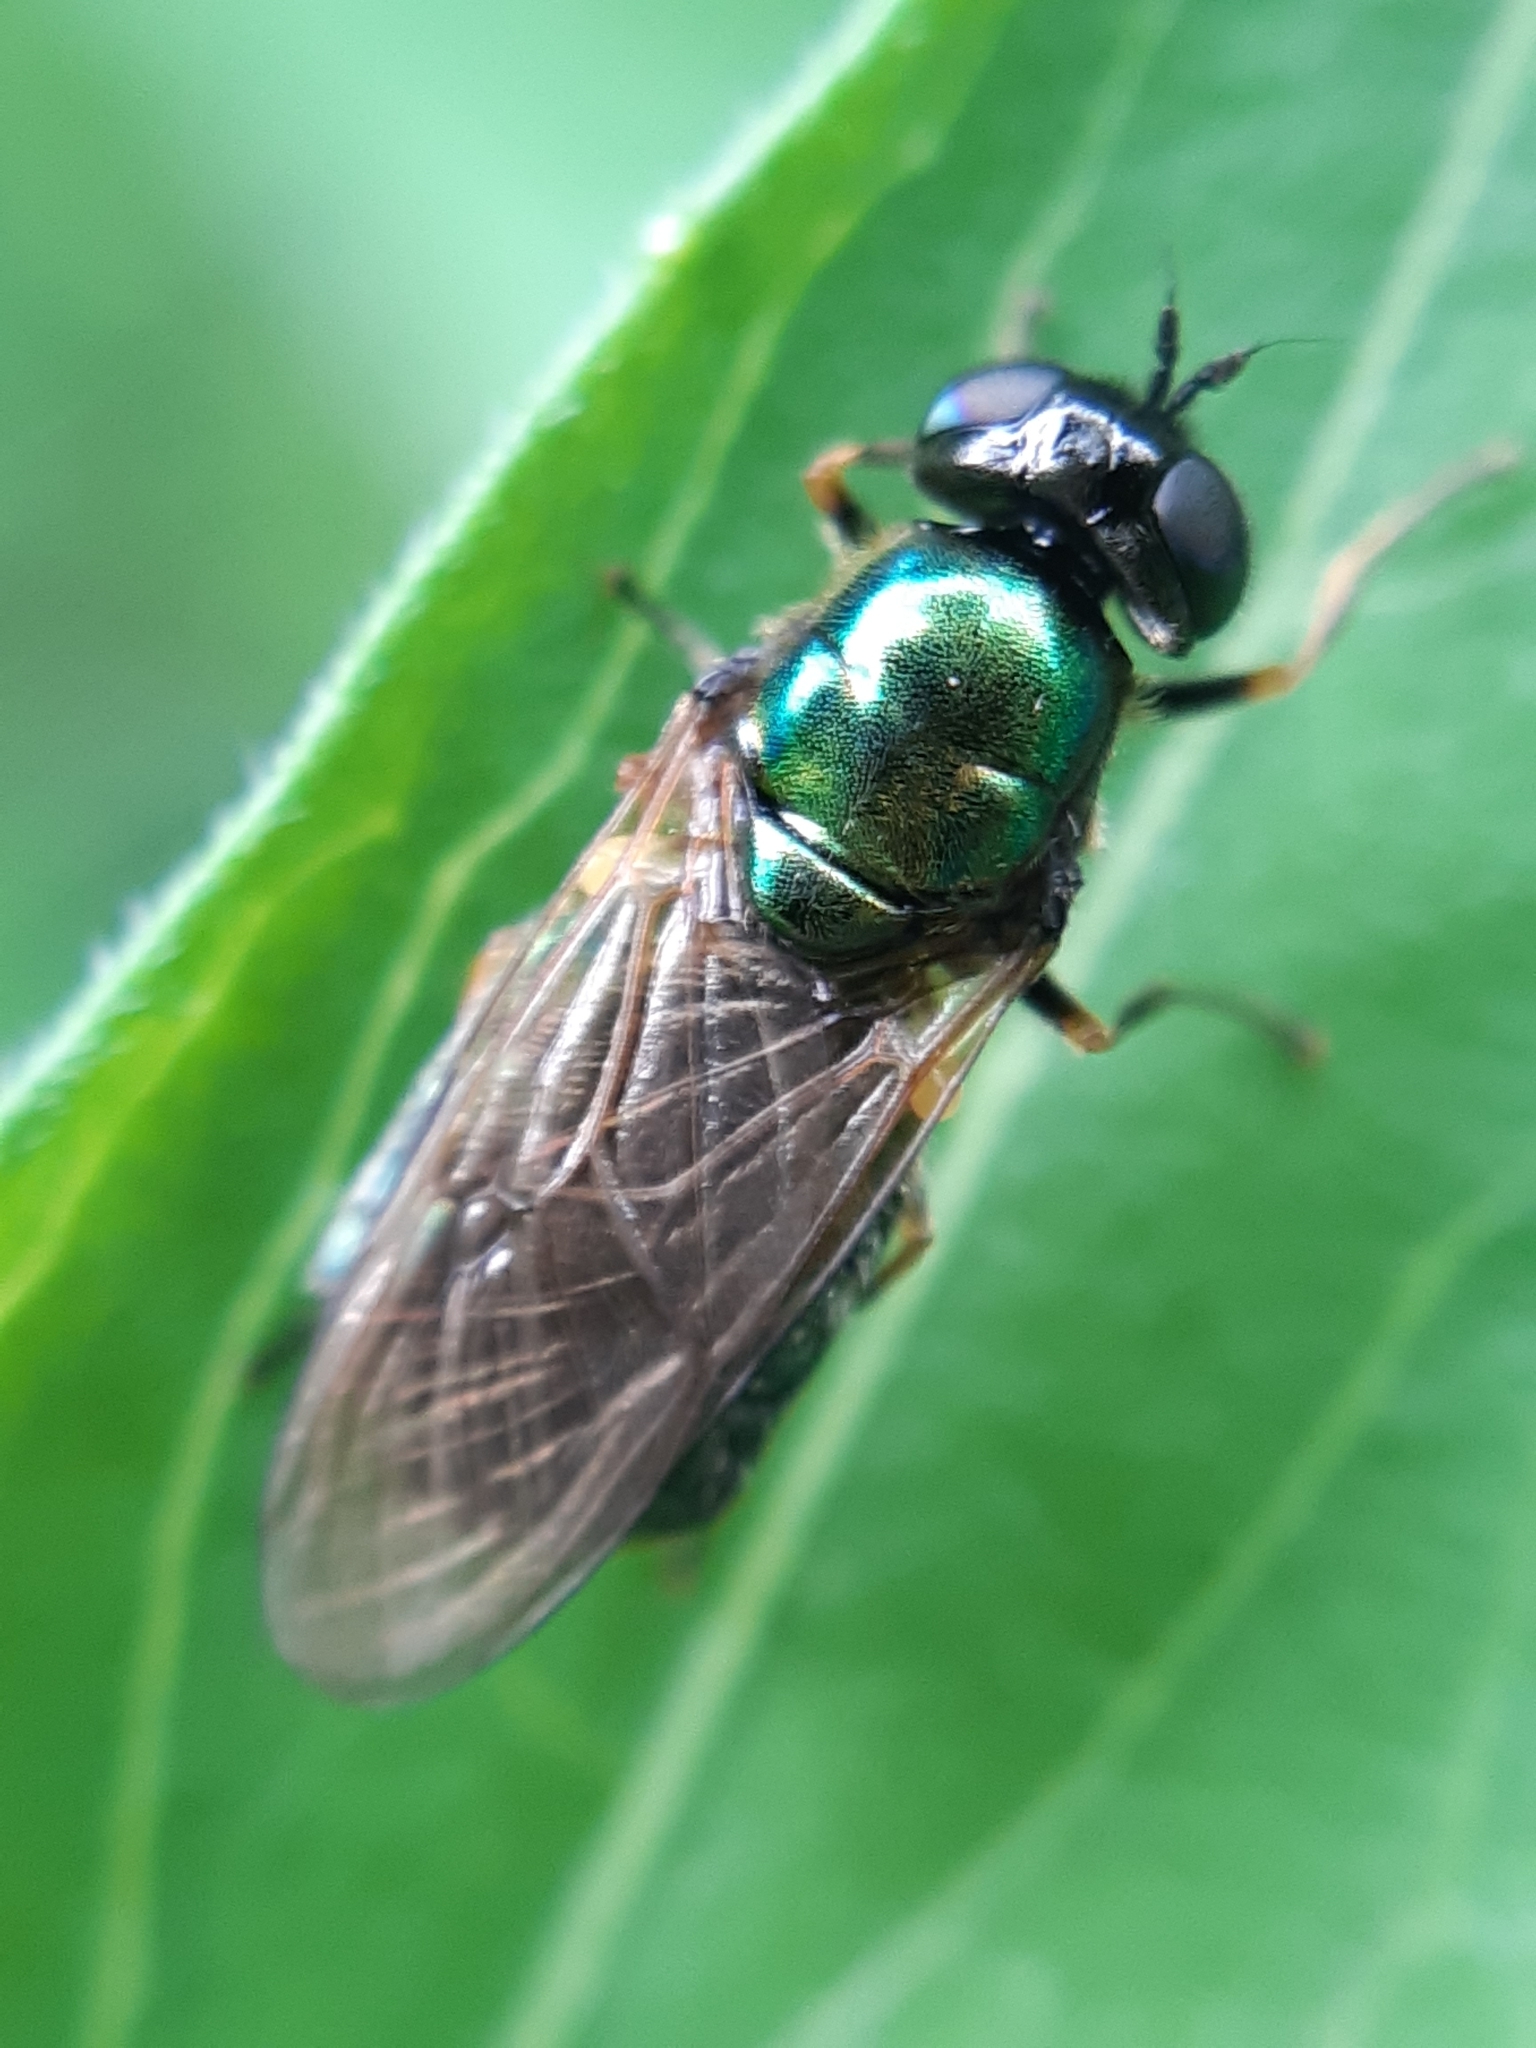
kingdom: Animalia
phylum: Arthropoda
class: Insecta
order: Diptera
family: Stratiomyidae
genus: Chloromyia
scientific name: Chloromyia formosa
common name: Soldier fly
